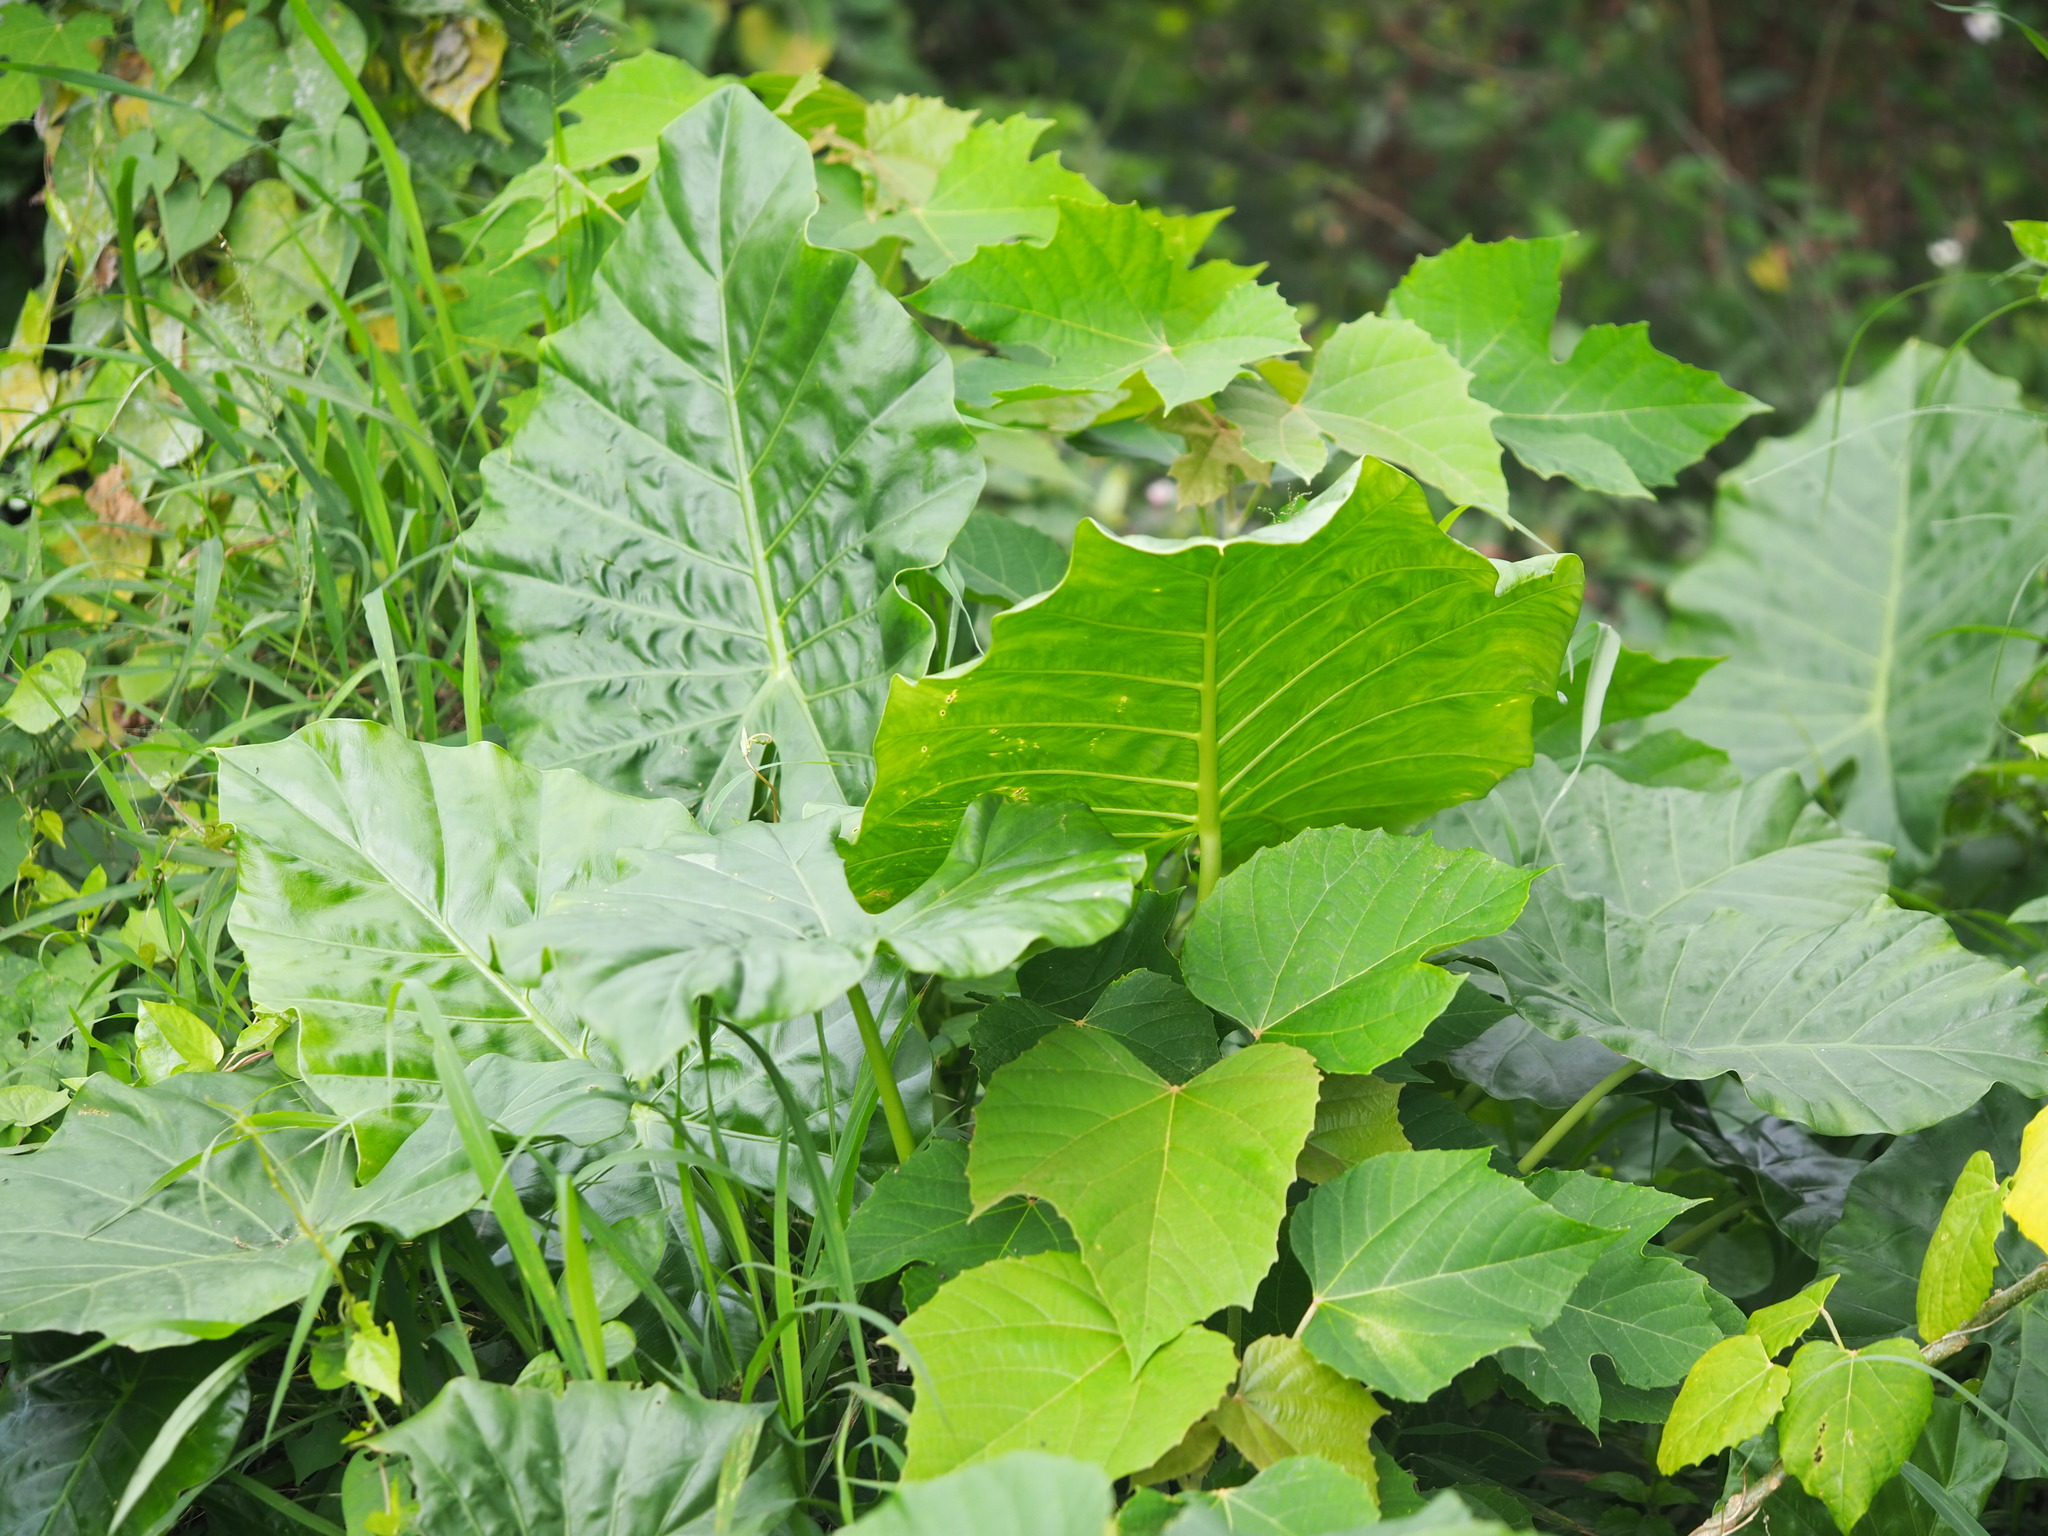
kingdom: Plantae
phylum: Tracheophyta
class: Liliopsida
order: Alismatales
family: Araceae
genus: Alocasia
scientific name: Alocasia odora
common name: Asian taro
